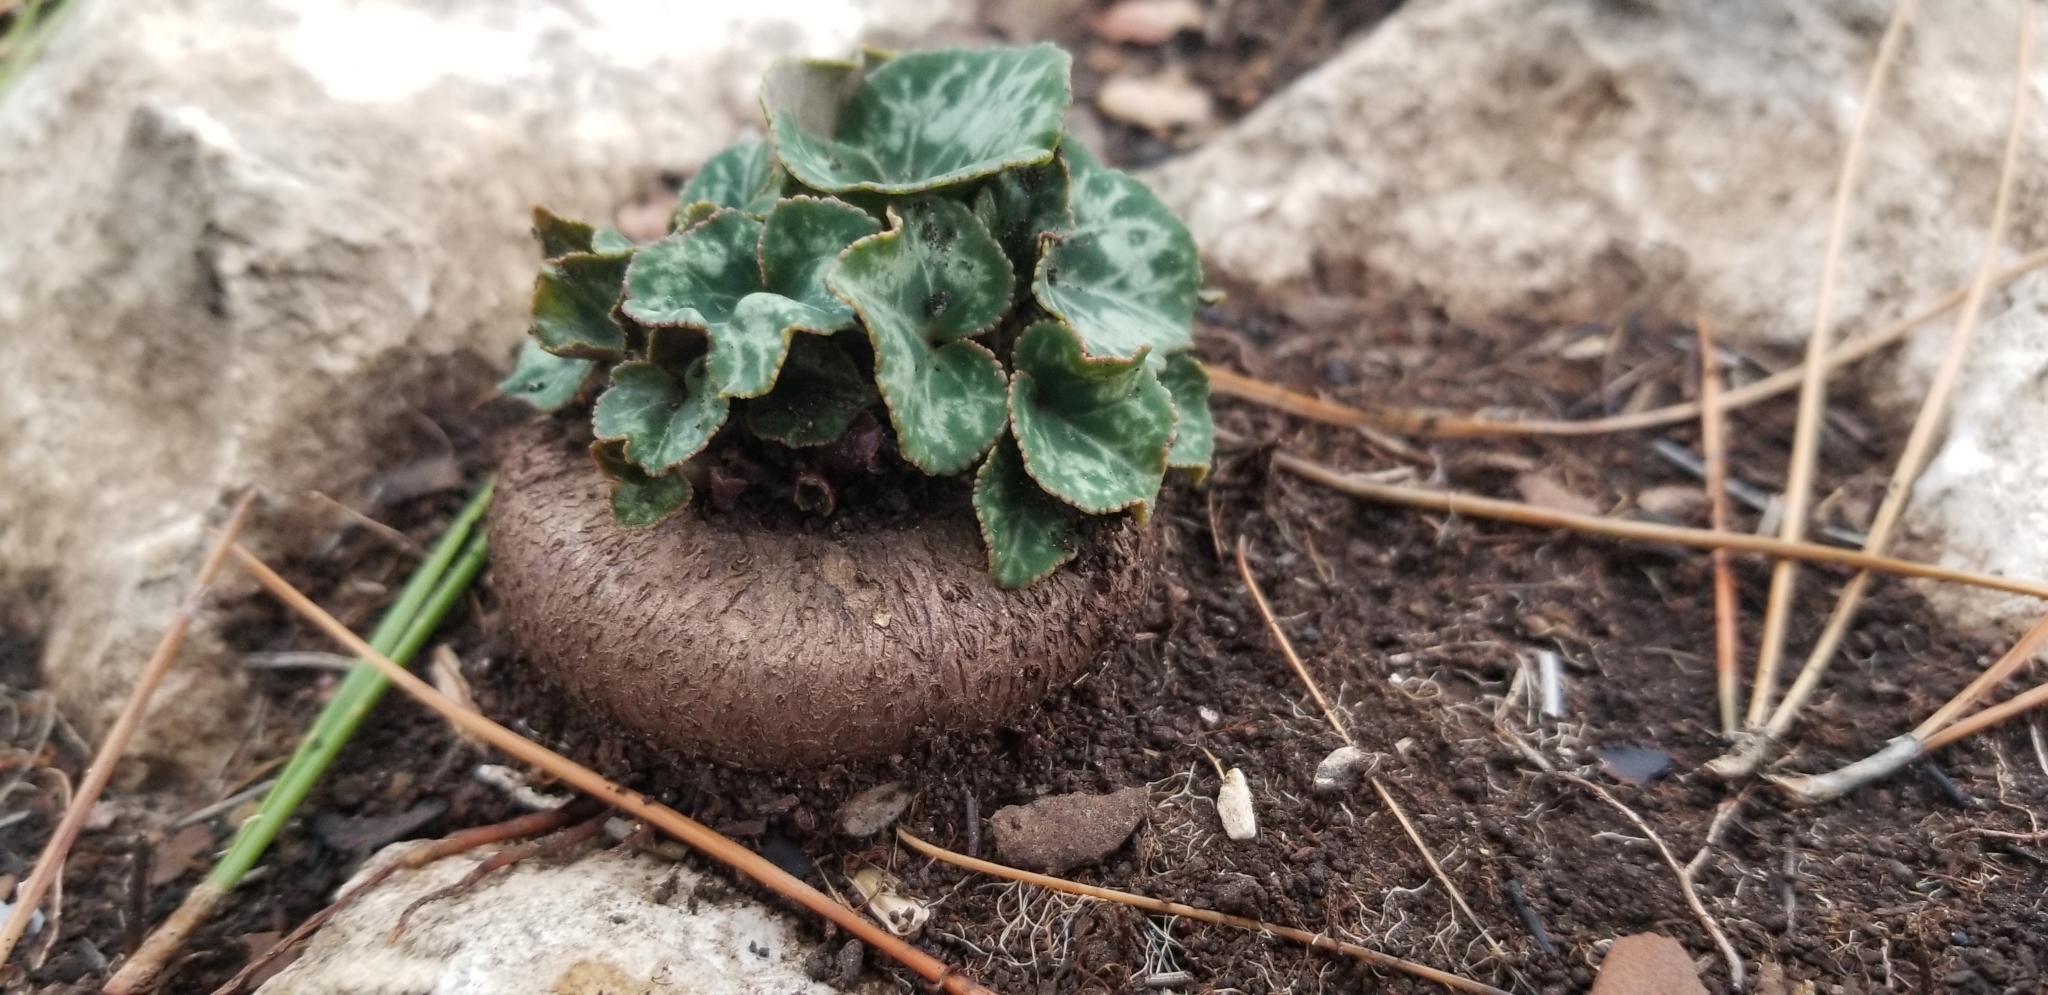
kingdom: Plantae
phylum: Tracheophyta
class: Magnoliopsida
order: Ericales
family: Primulaceae
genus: Cyclamen
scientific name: Cyclamen persicum
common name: Florist's cyclamen
